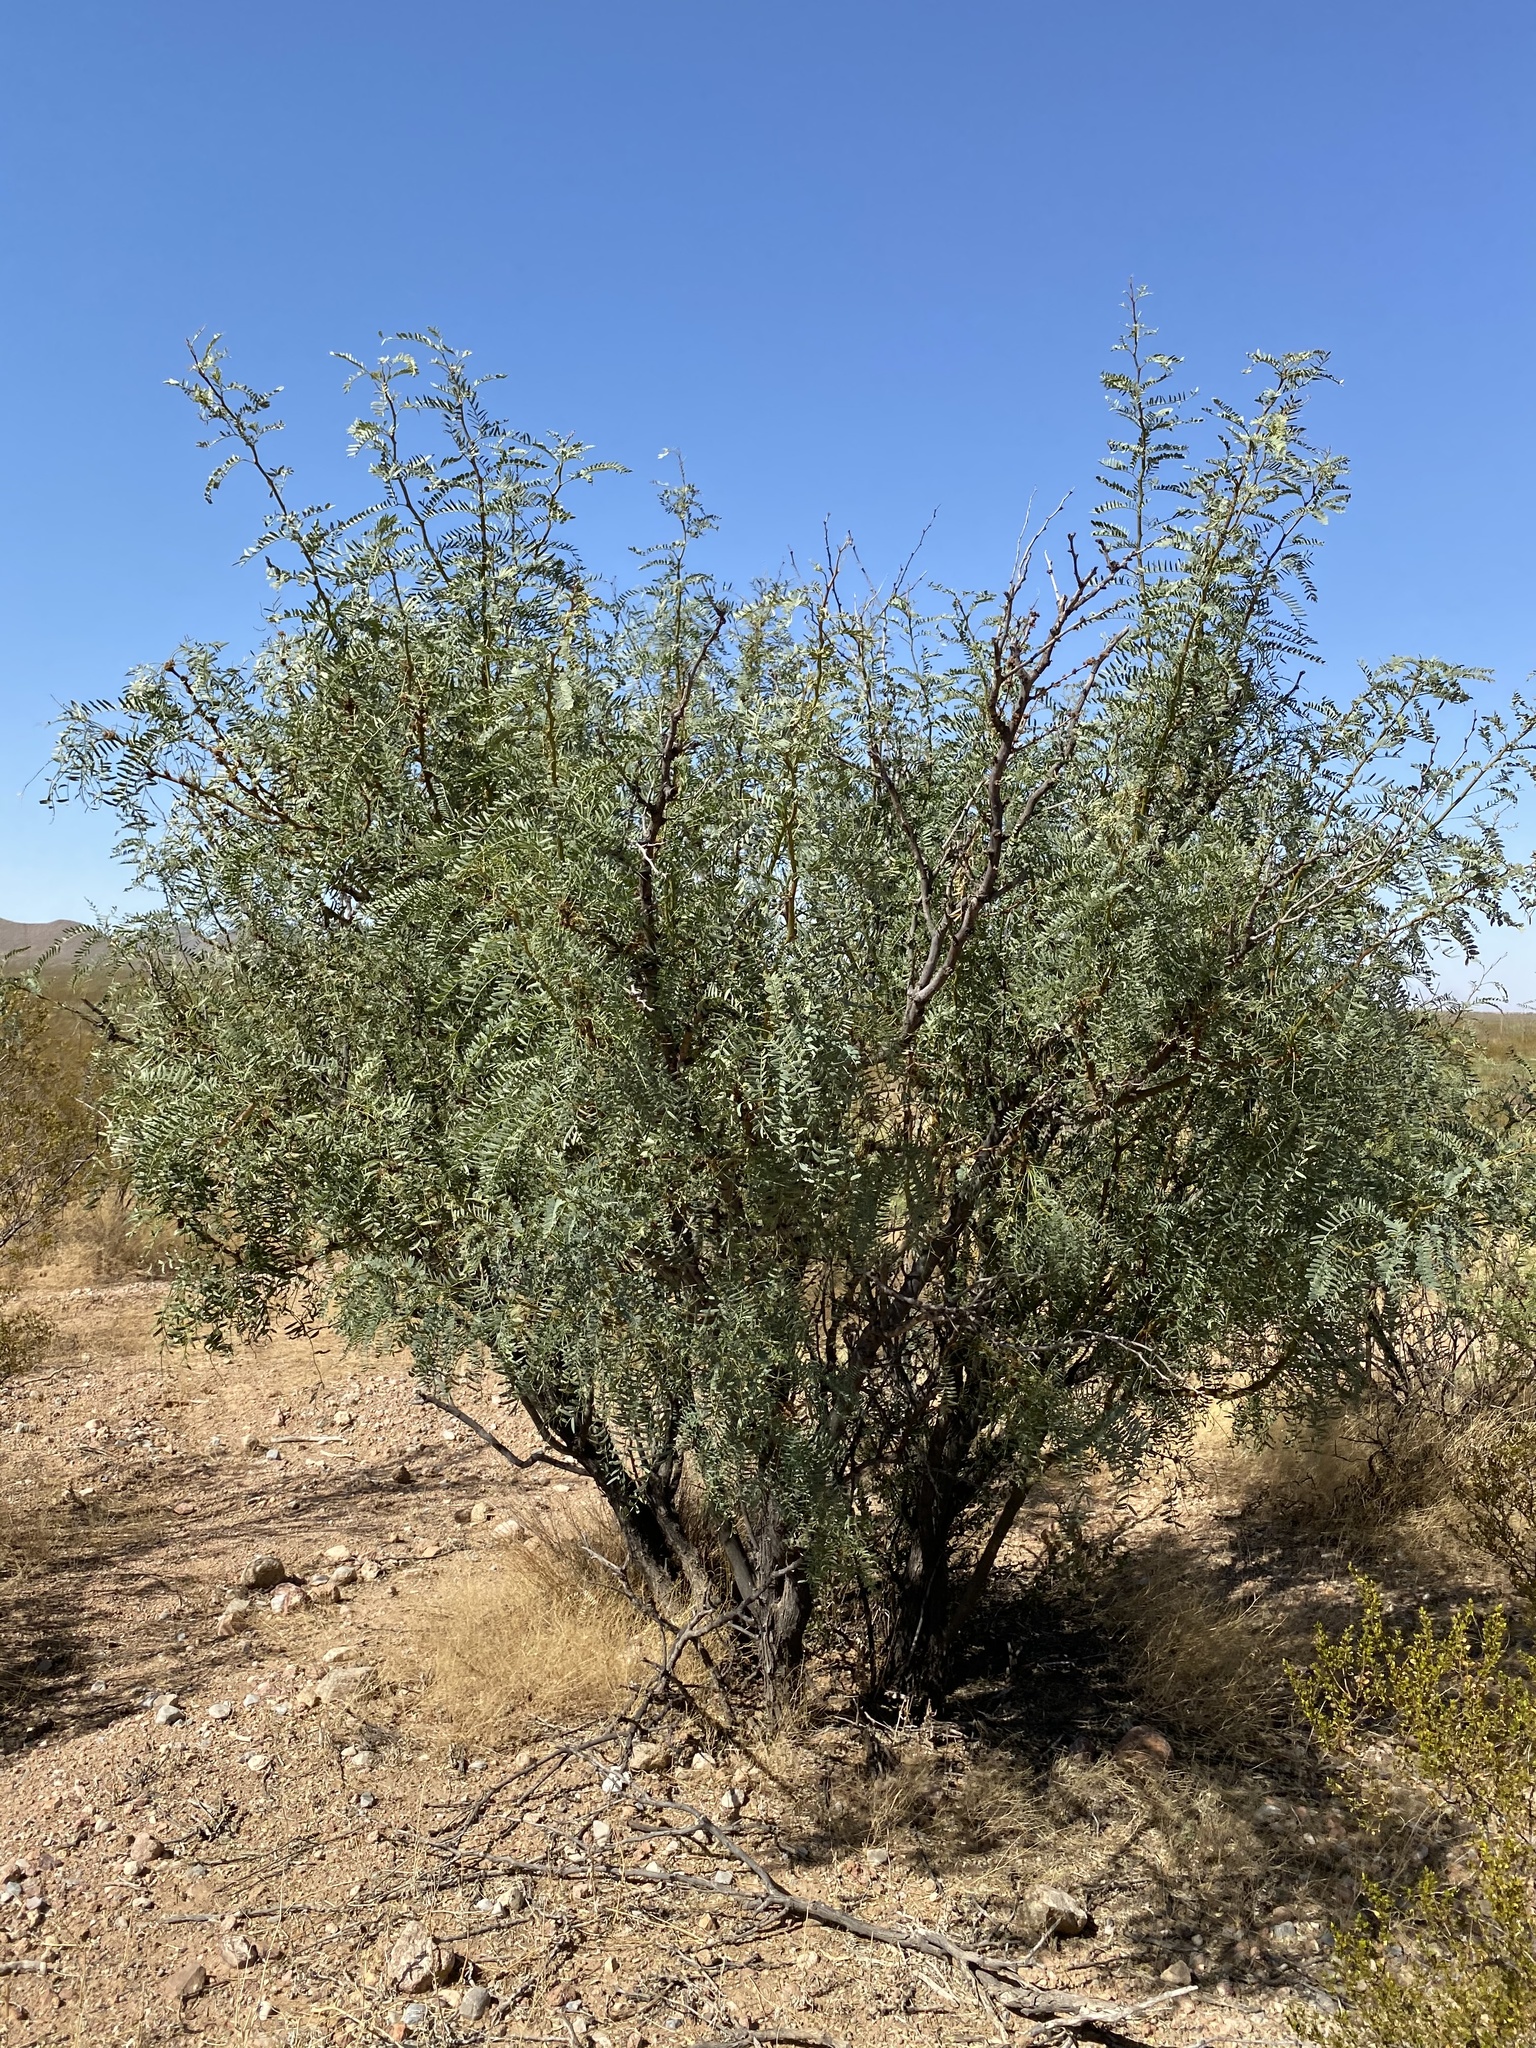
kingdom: Plantae
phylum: Tracheophyta
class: Magnoliopsida
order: Fabales
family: Fabaceae
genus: Prosopis
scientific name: Prosopis glandulosa
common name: Honey mesquite
